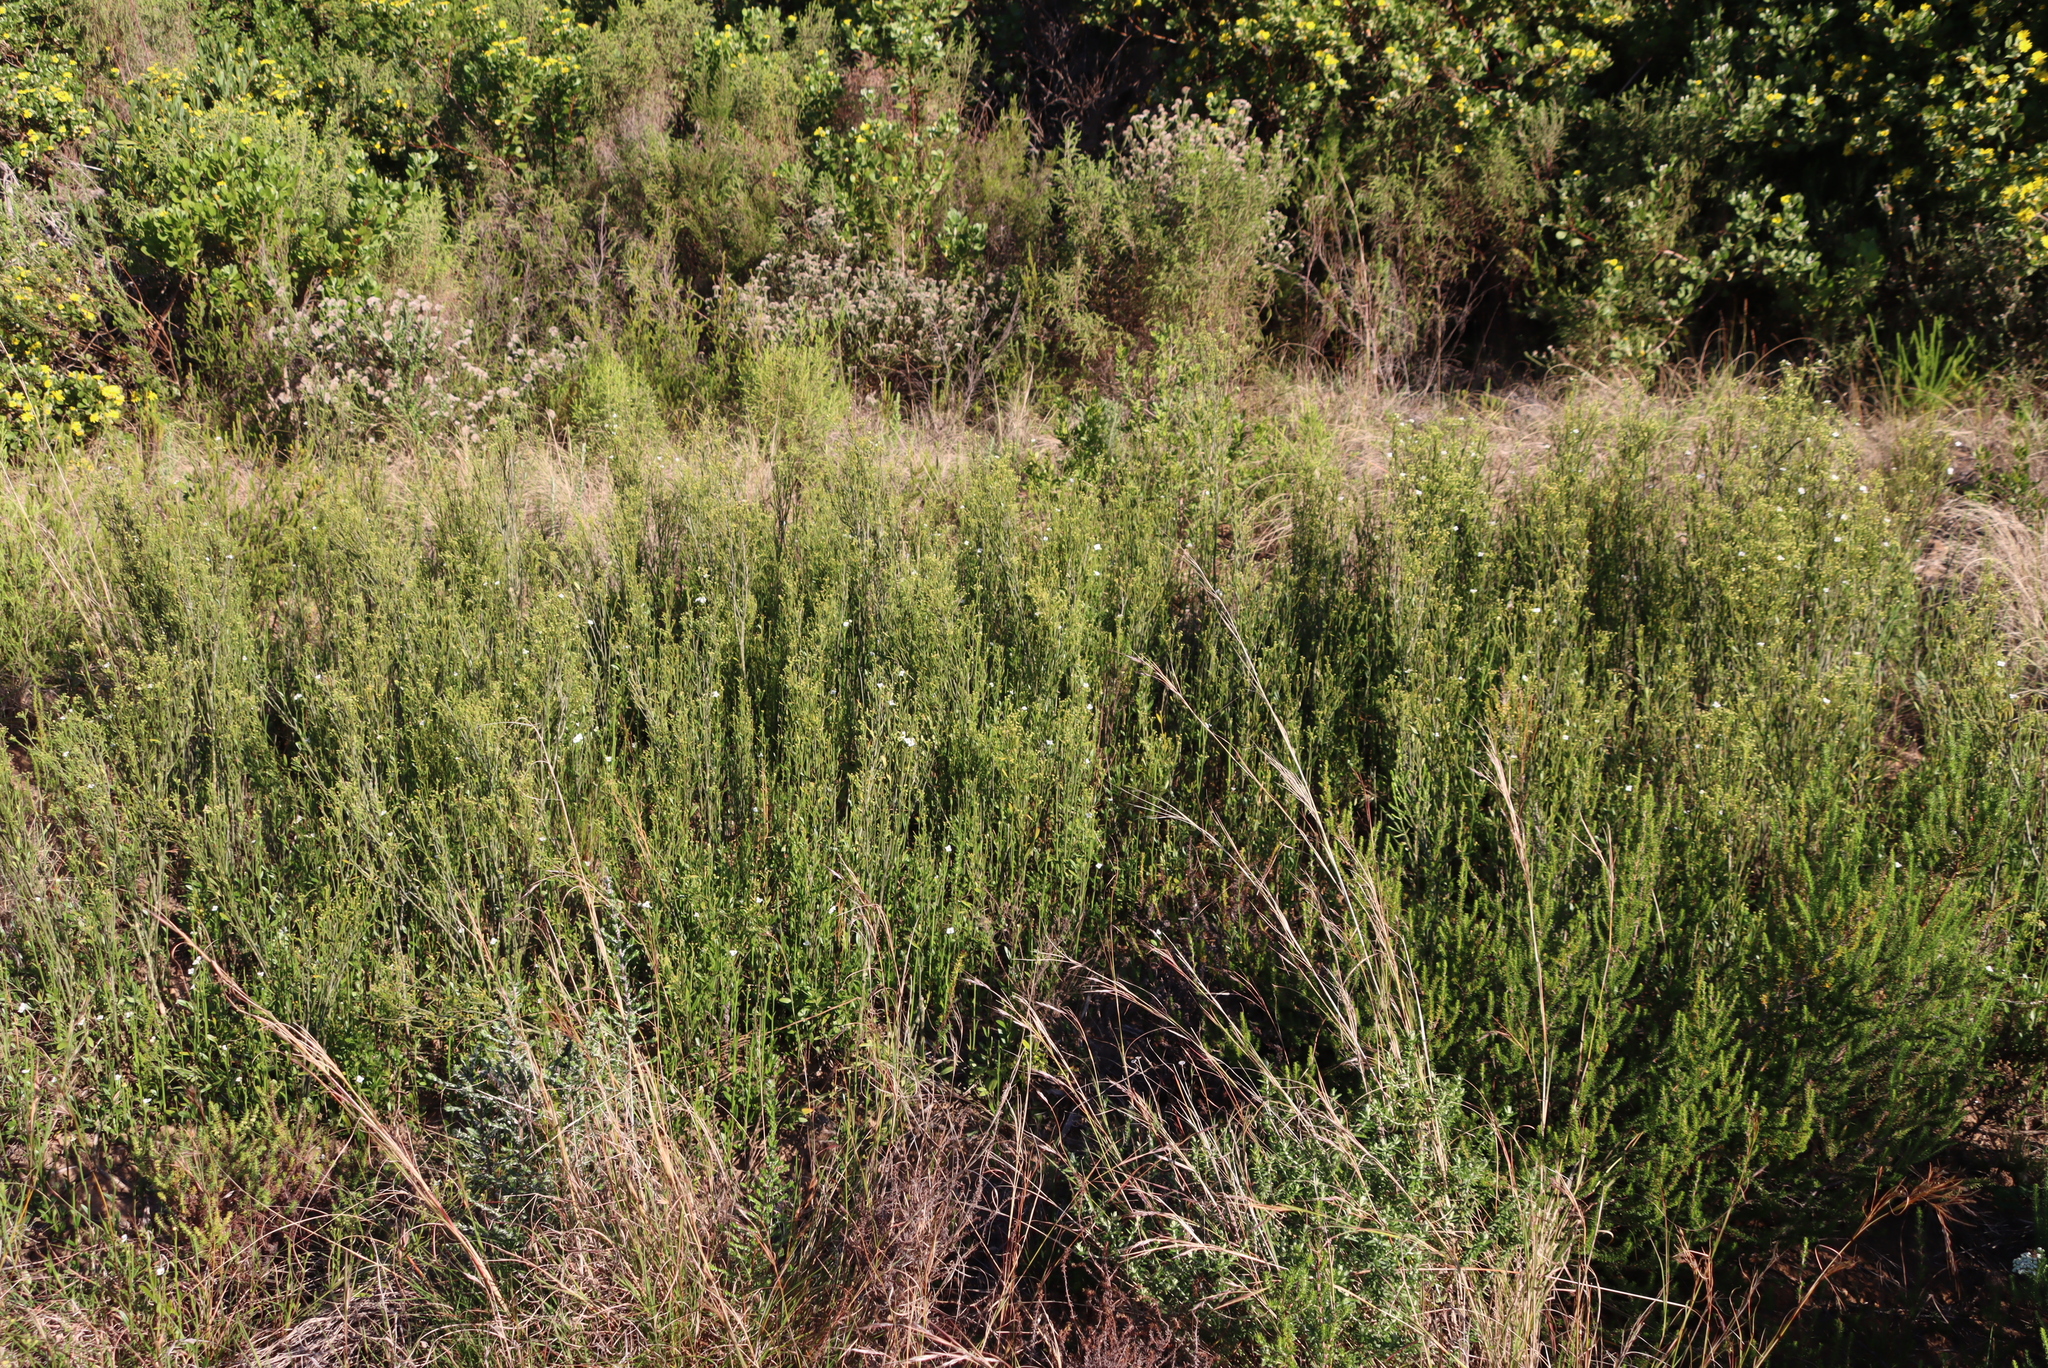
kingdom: Plantae
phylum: Tracheophyta
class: Magnoliopsida
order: Solanales
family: Montiniaceae
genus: Montinia
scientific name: Montinia caryophyllacea
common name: Wild clove-bush
